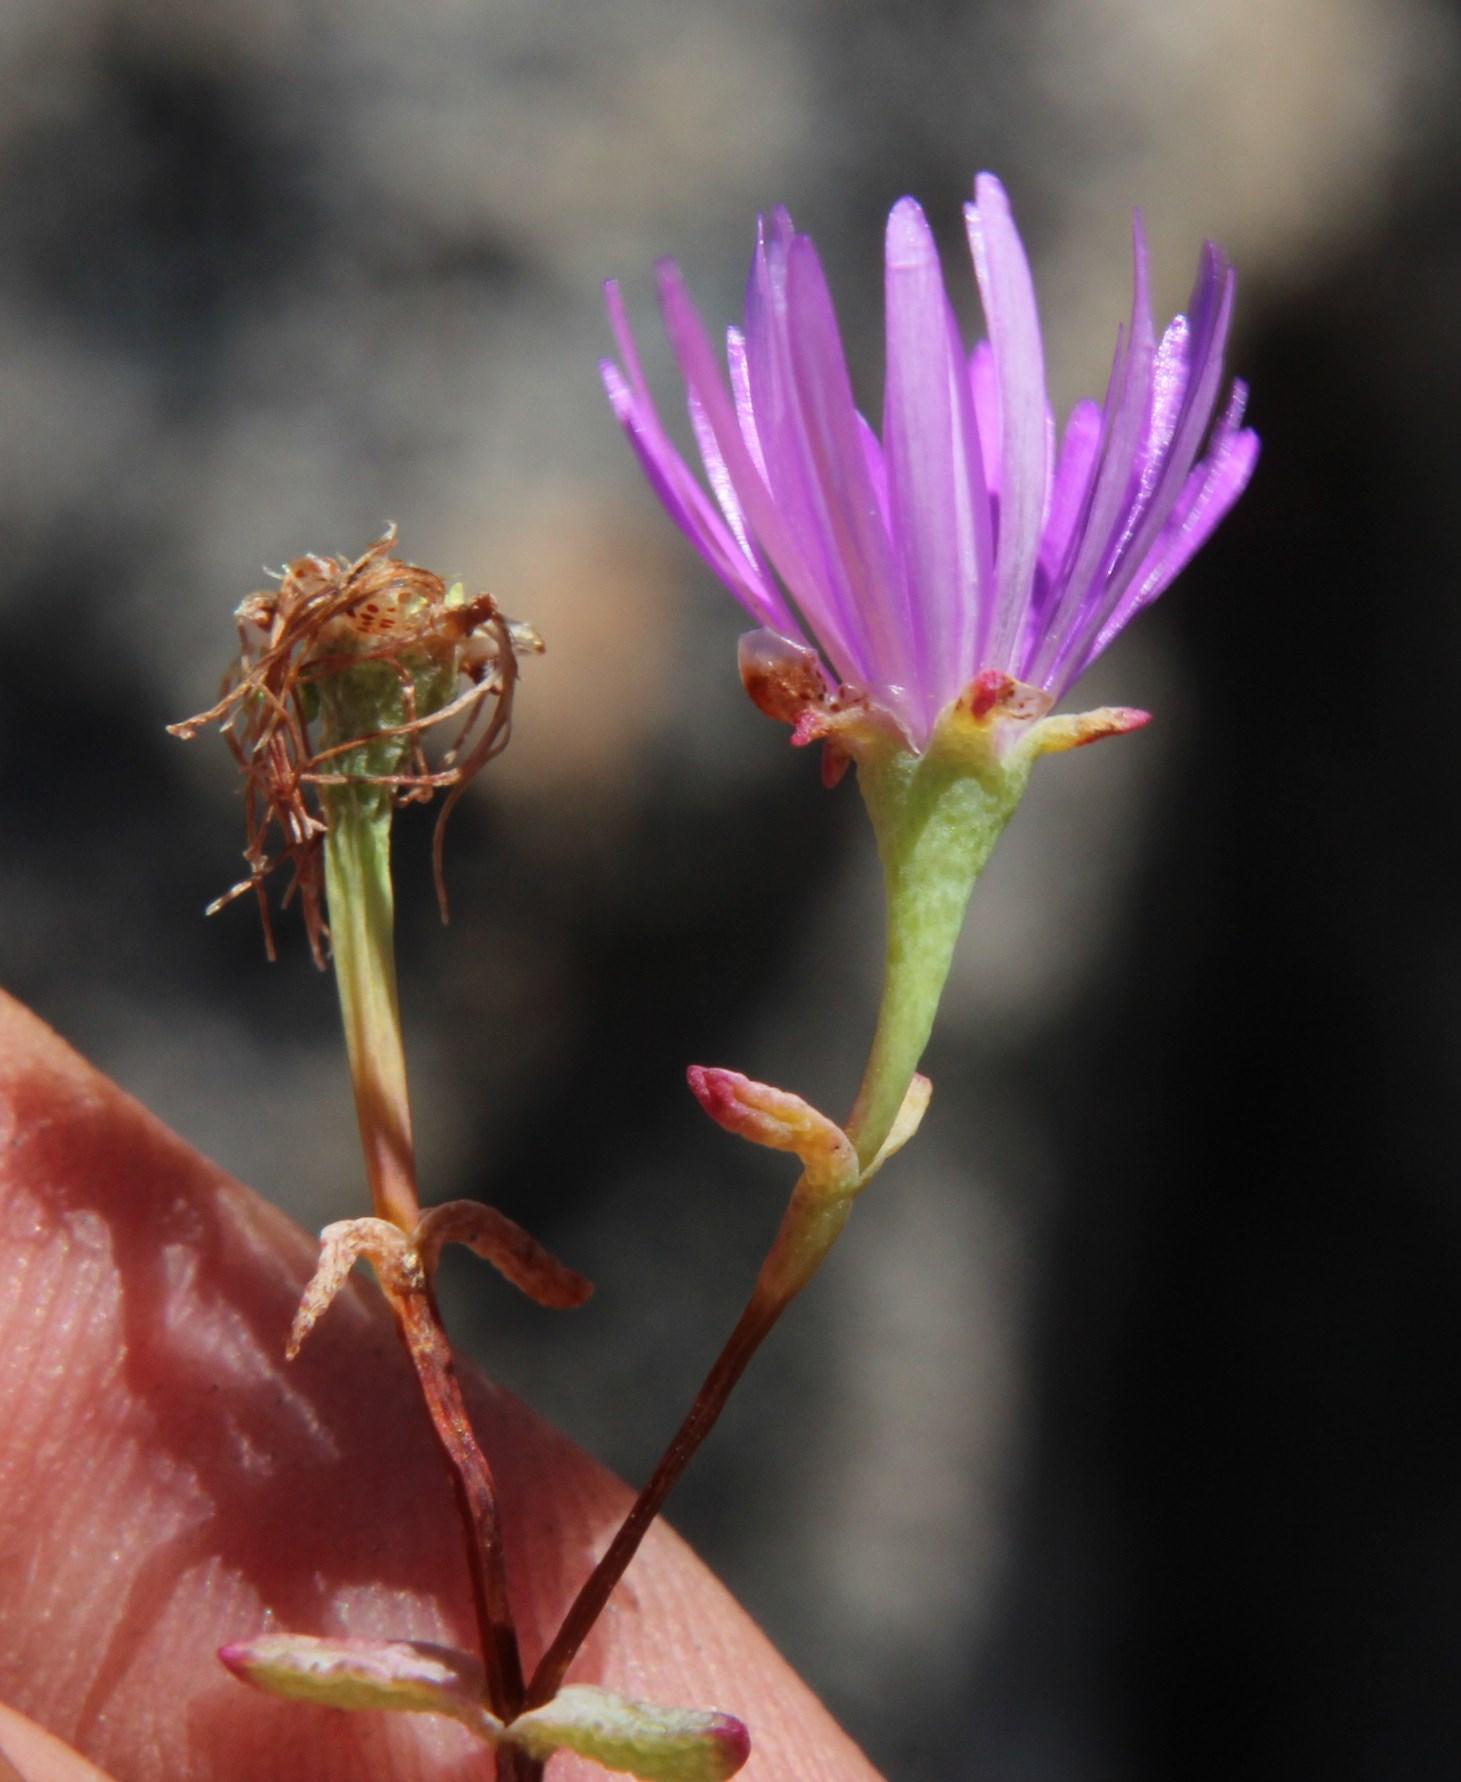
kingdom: Plantae
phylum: Tracheophyta
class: Magnoliopsida
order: Caryophyllales
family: Aizoaceae
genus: Lampranthus
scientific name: Lampranthus falcatus
